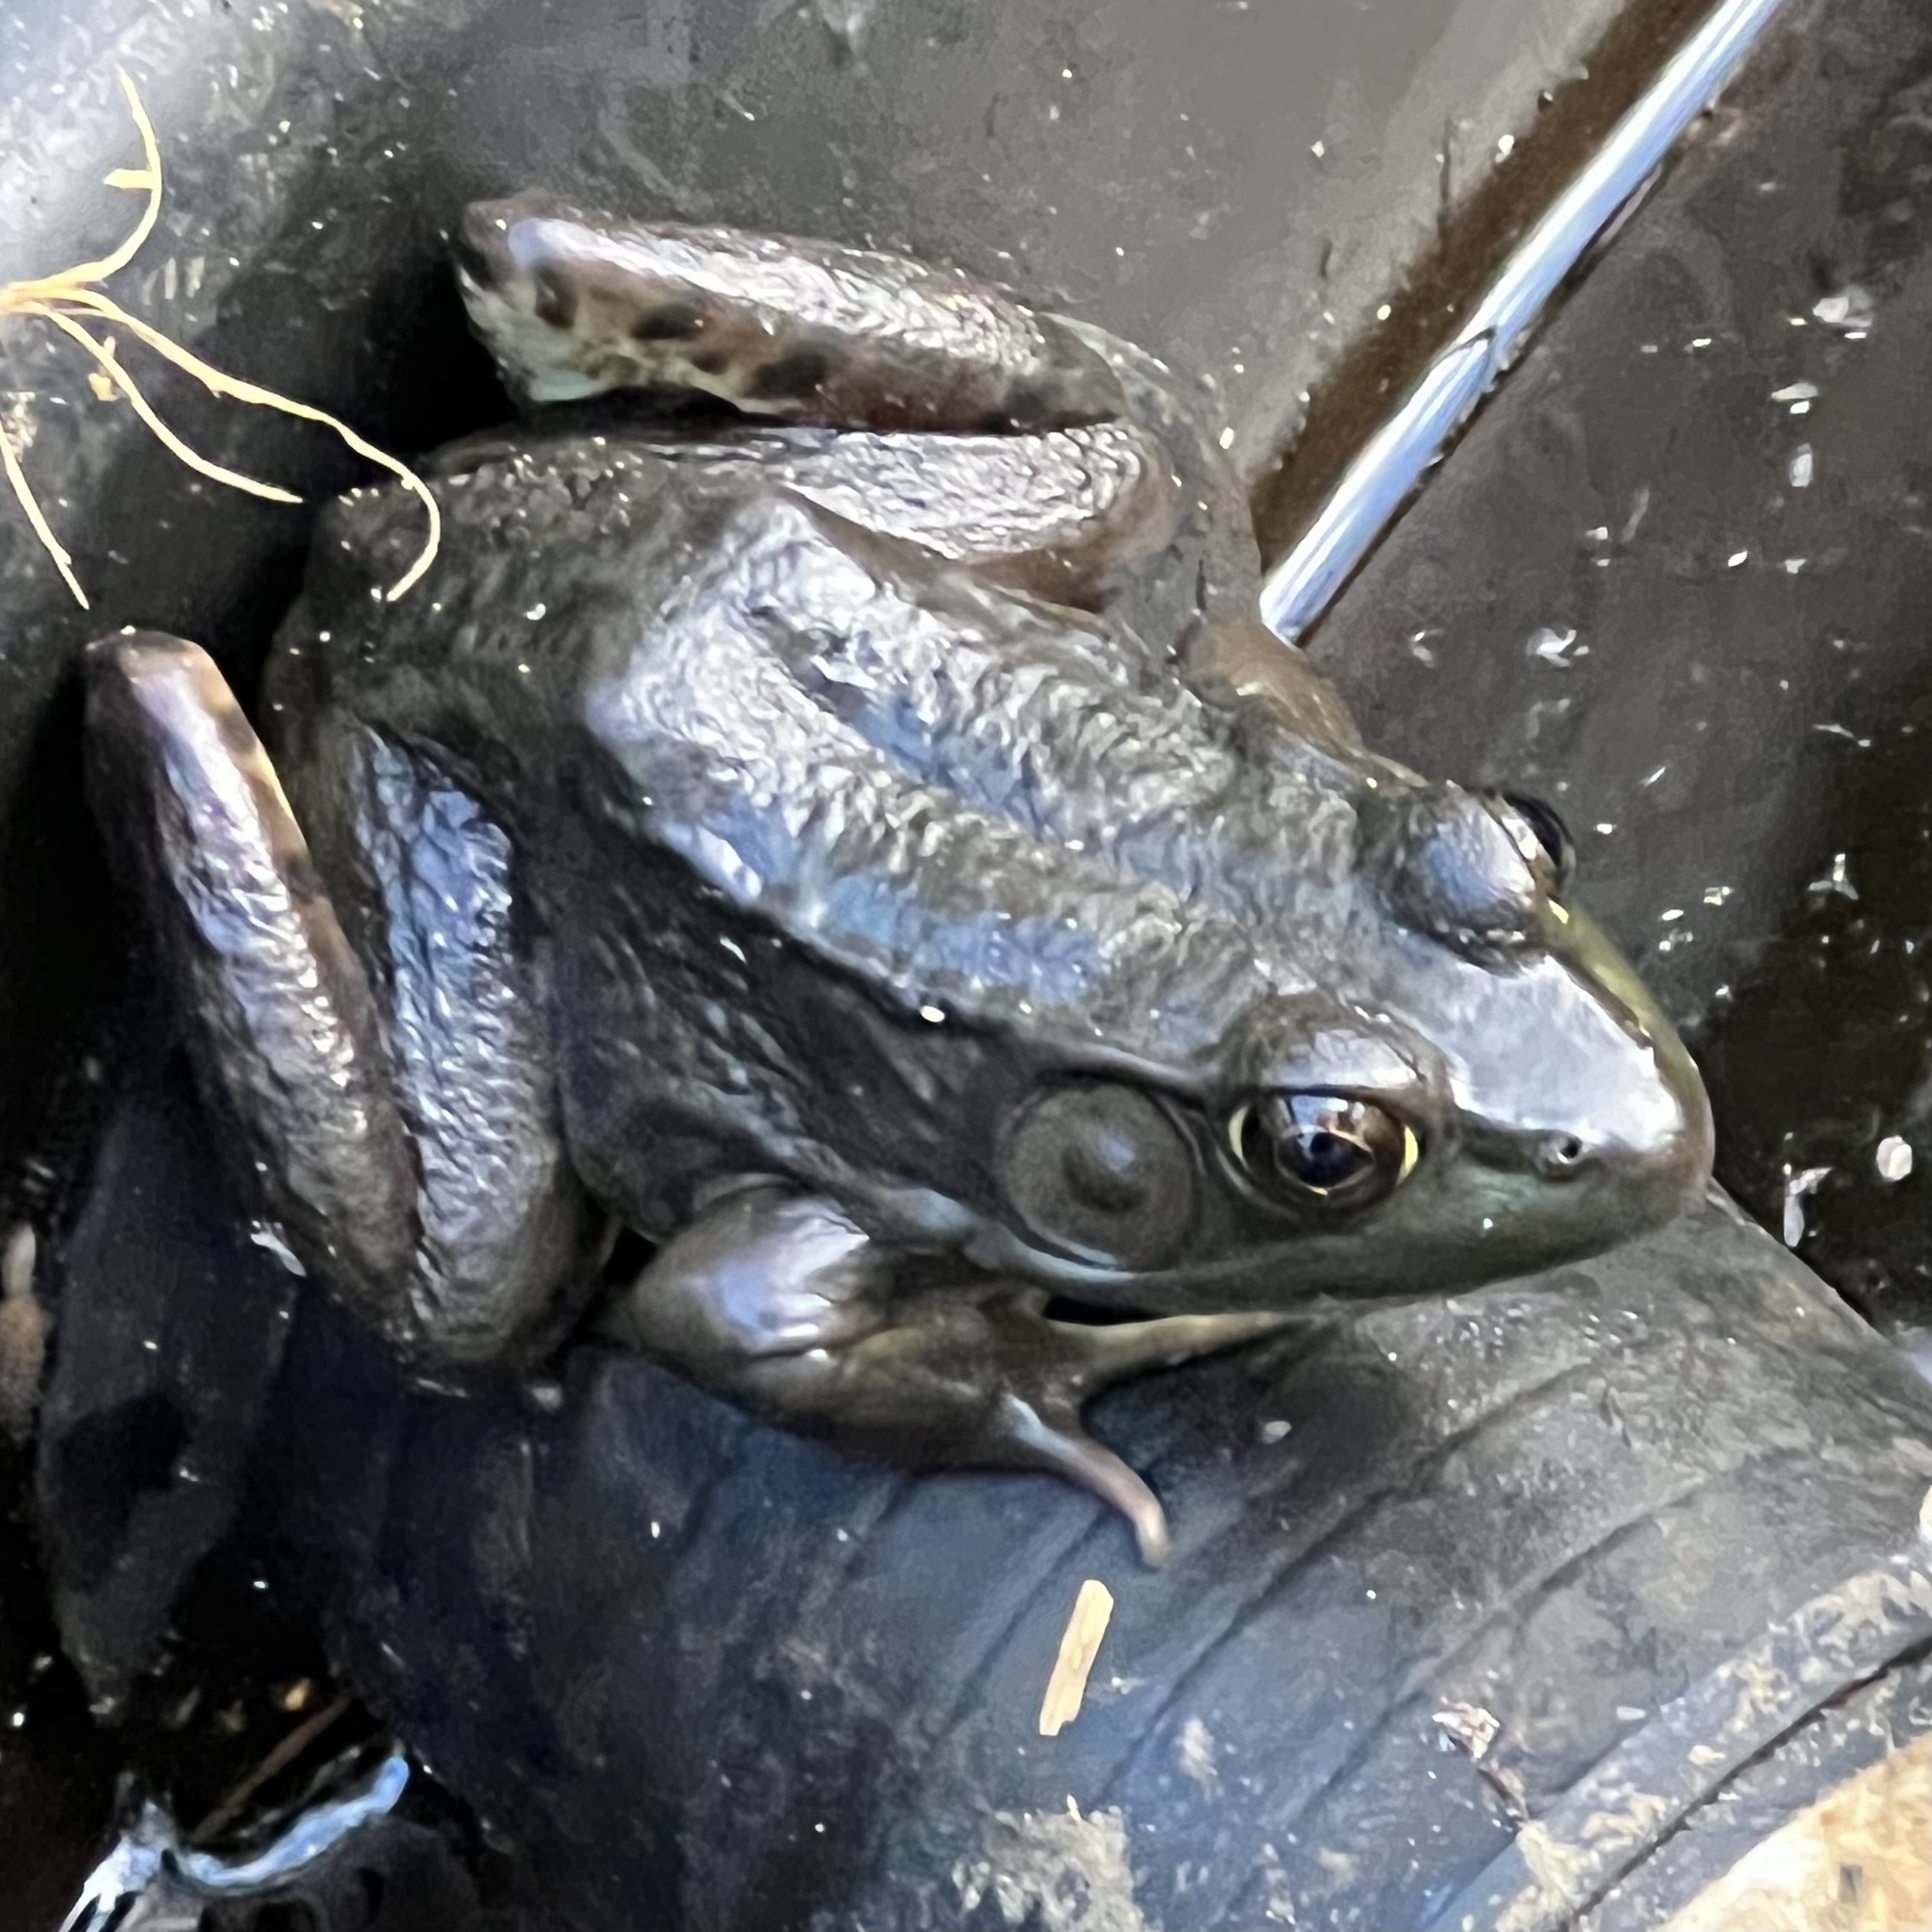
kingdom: Animalia
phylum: Chordata
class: Amphibia
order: Anura
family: Ranidae
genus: Lithobates
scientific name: Lithobates clamitans
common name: Green frog
